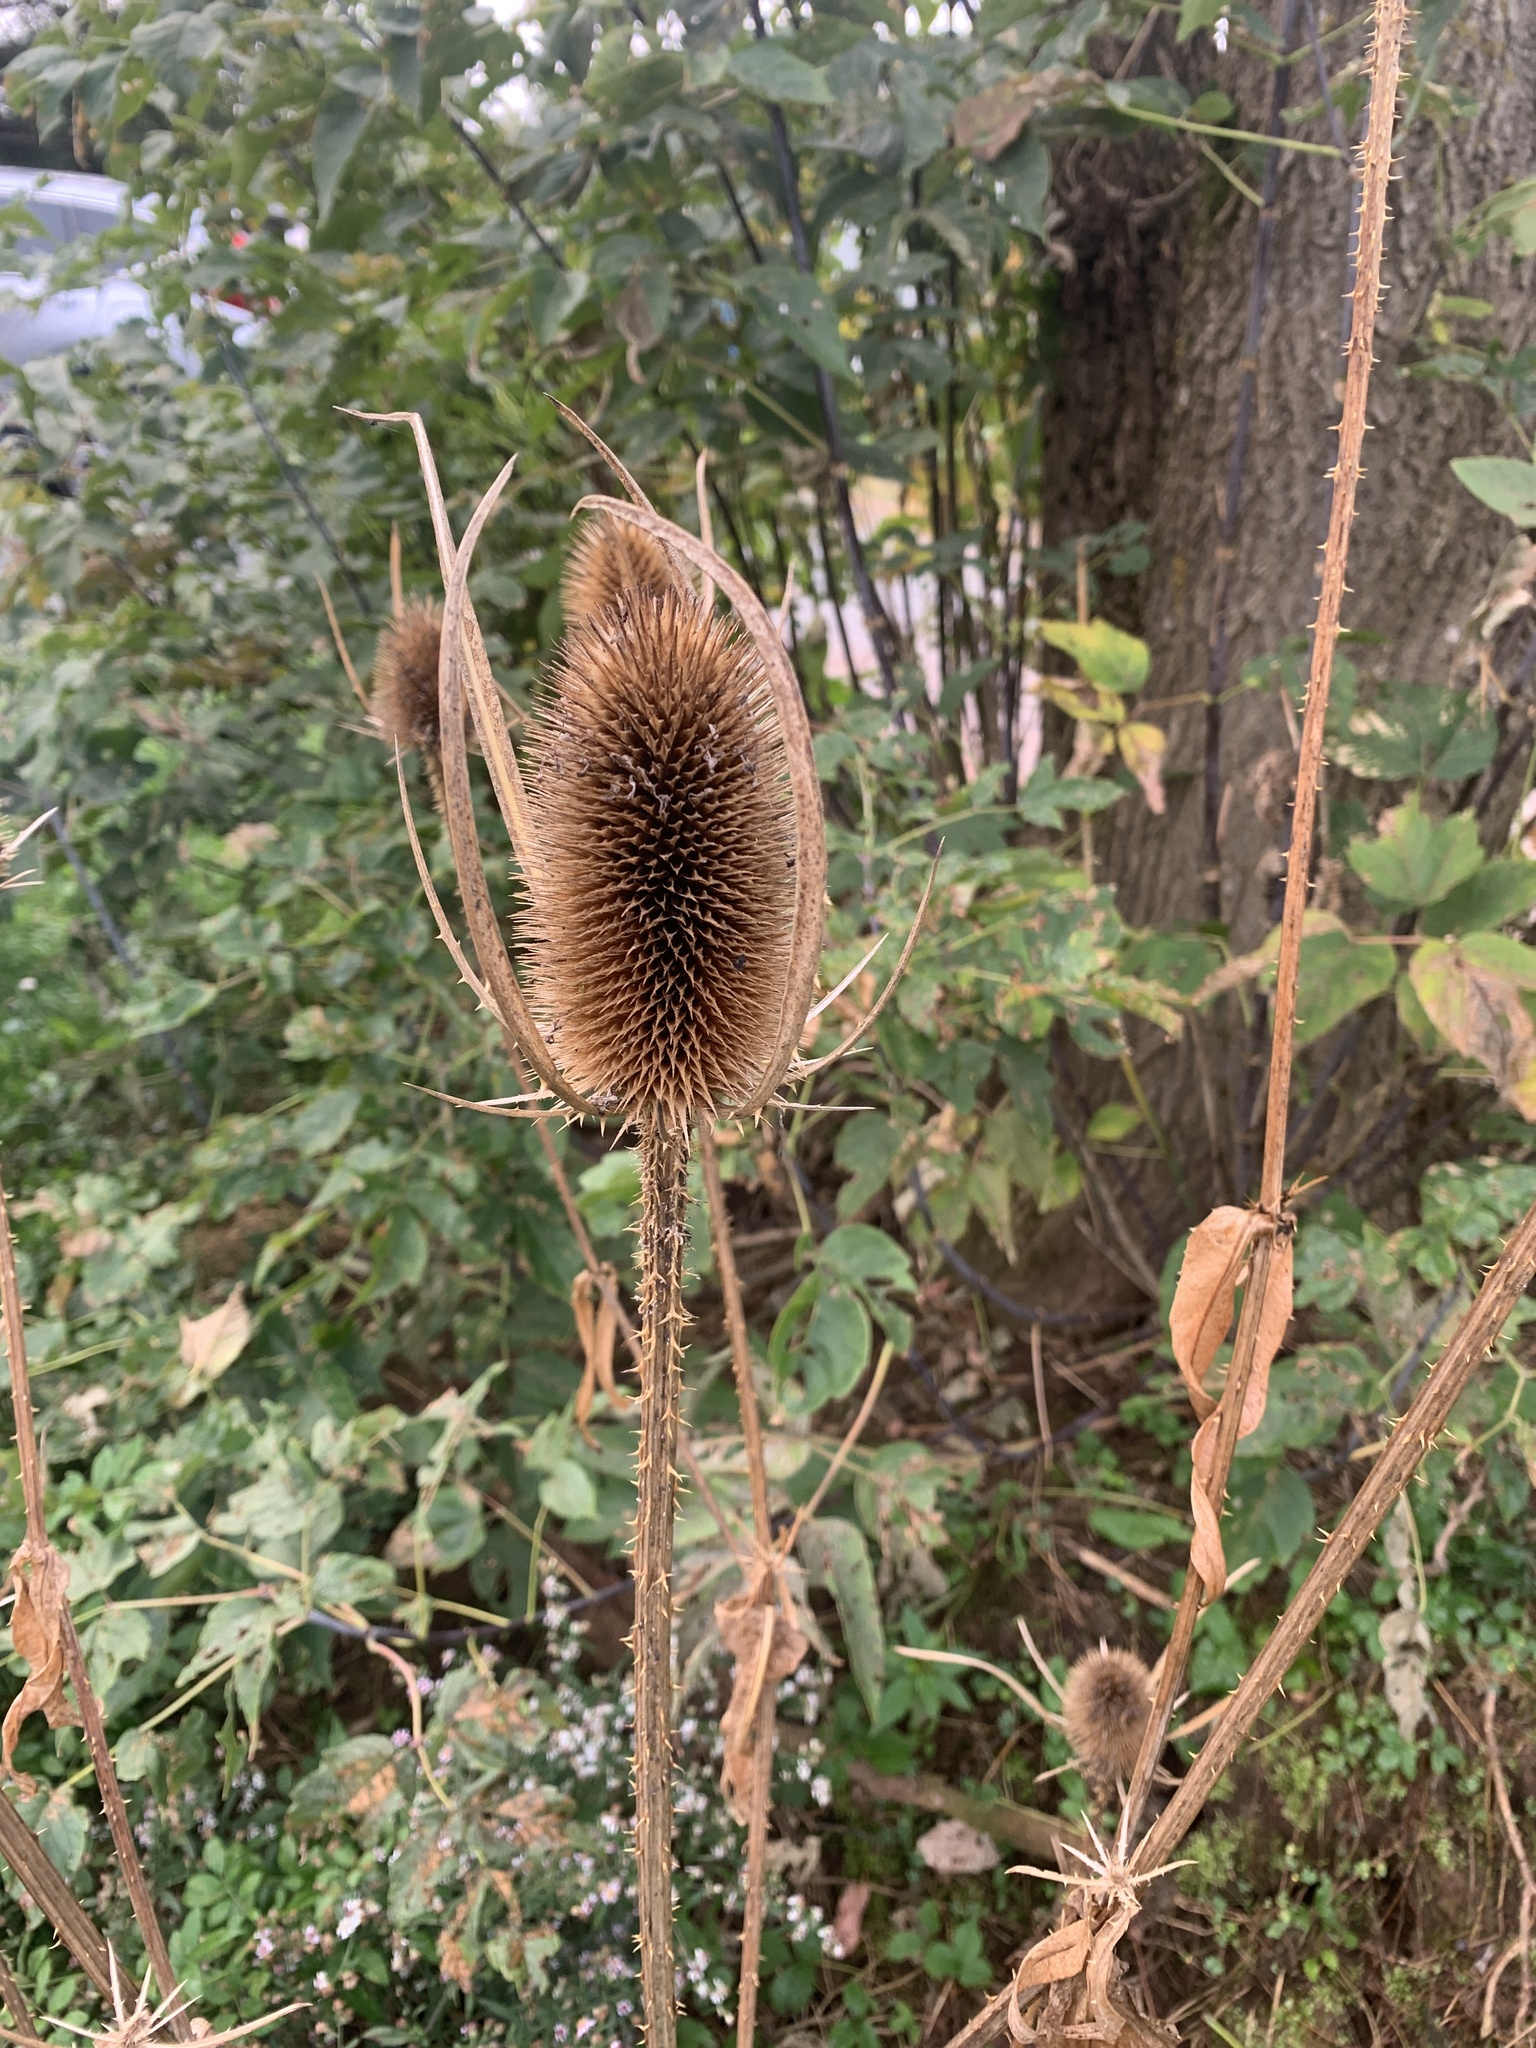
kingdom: Plantae
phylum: Tracheophyta
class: Magnoliopsida
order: Dipsacales
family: Caprifoliaceae
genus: Dipsacus
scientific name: Dipsacus fullonum
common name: Teasel
